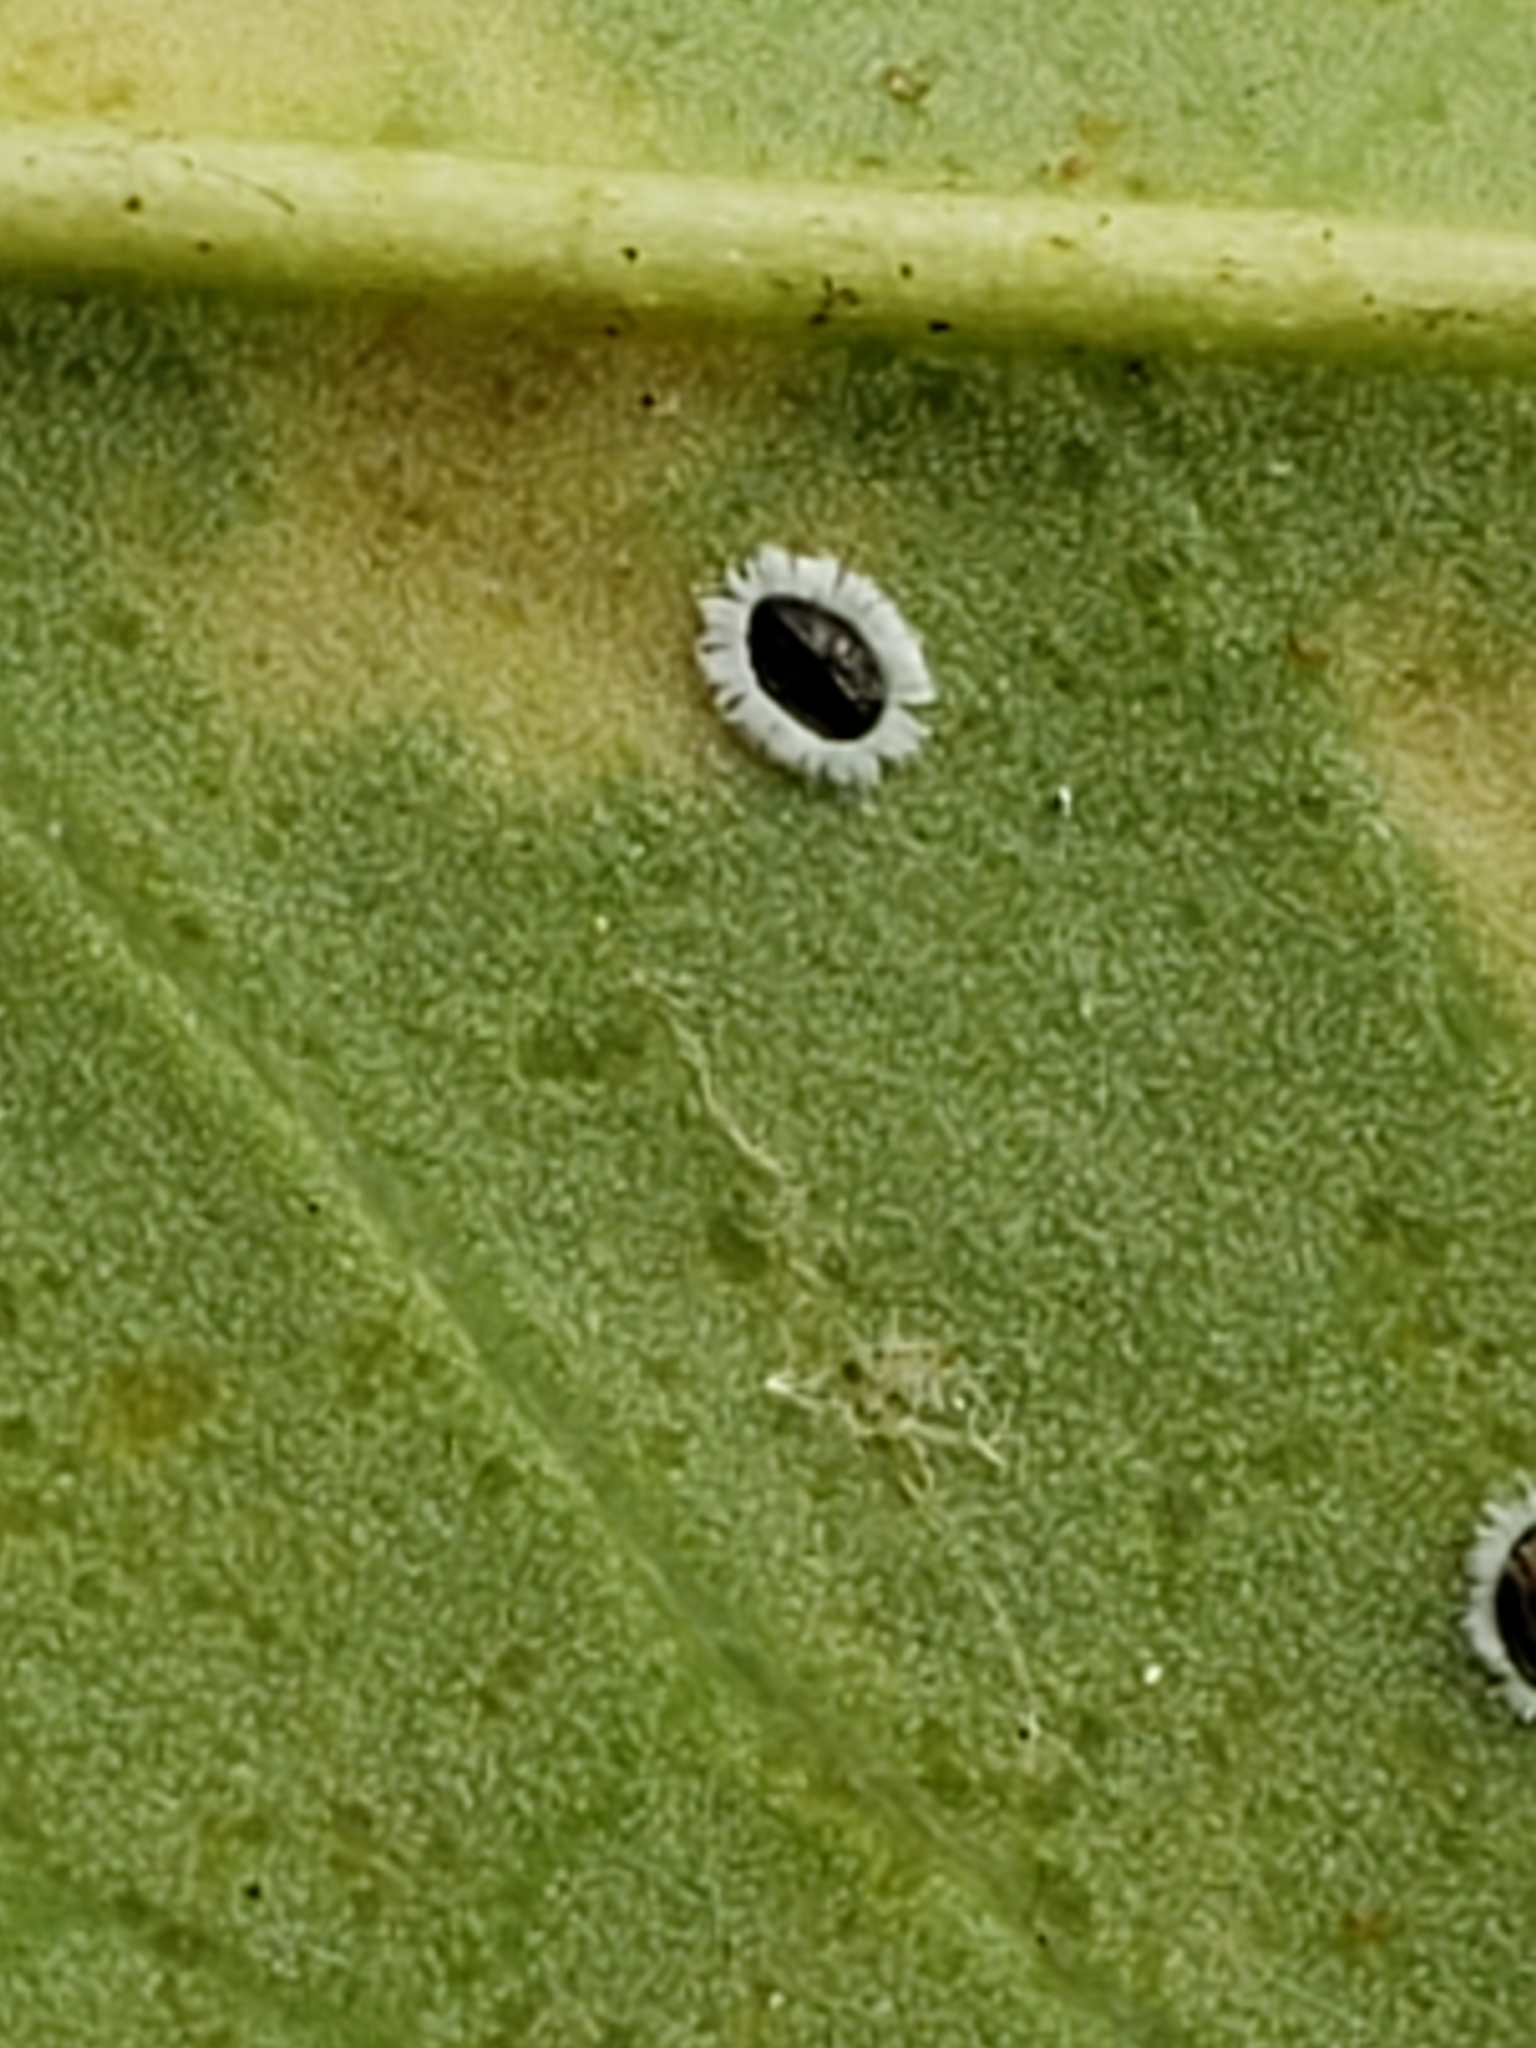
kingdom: Animalia
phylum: Arthropoda
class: Insecta
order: Hemiptera
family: Aleyrodidae
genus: Tetraleurodes
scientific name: Tetraleurodes mori
